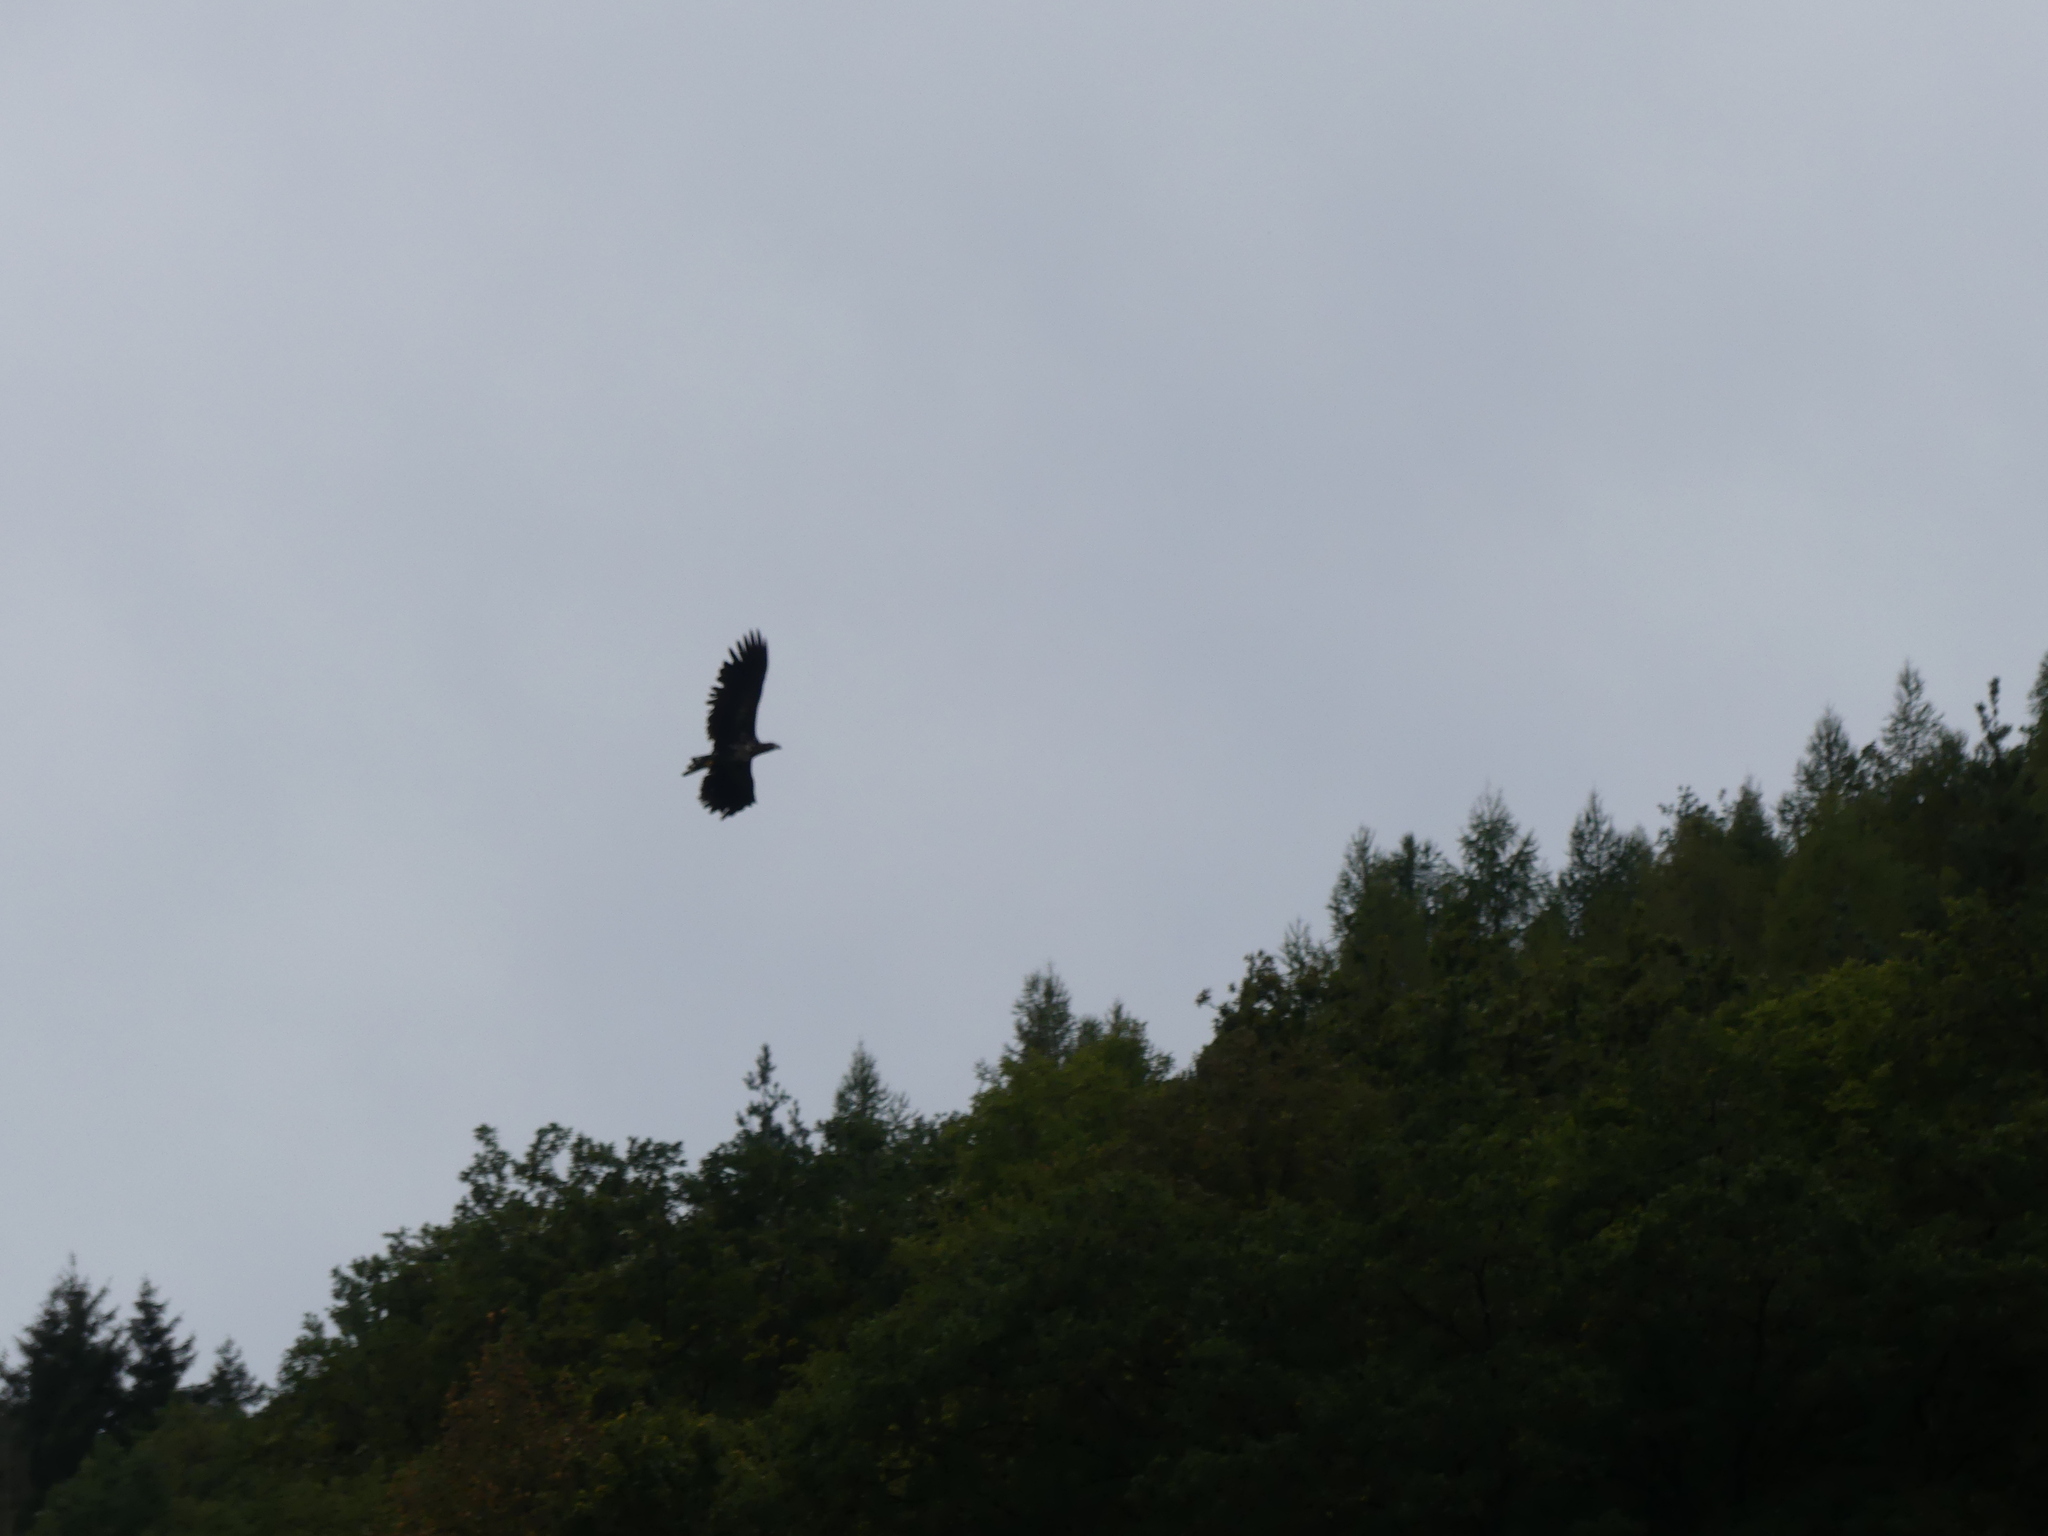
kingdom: Animalia
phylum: Chordata
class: Aves
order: Accipitriformes
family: Accipitridae
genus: Haliaeetus
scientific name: Haliaeetus albicilla
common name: White-tailed eagle
